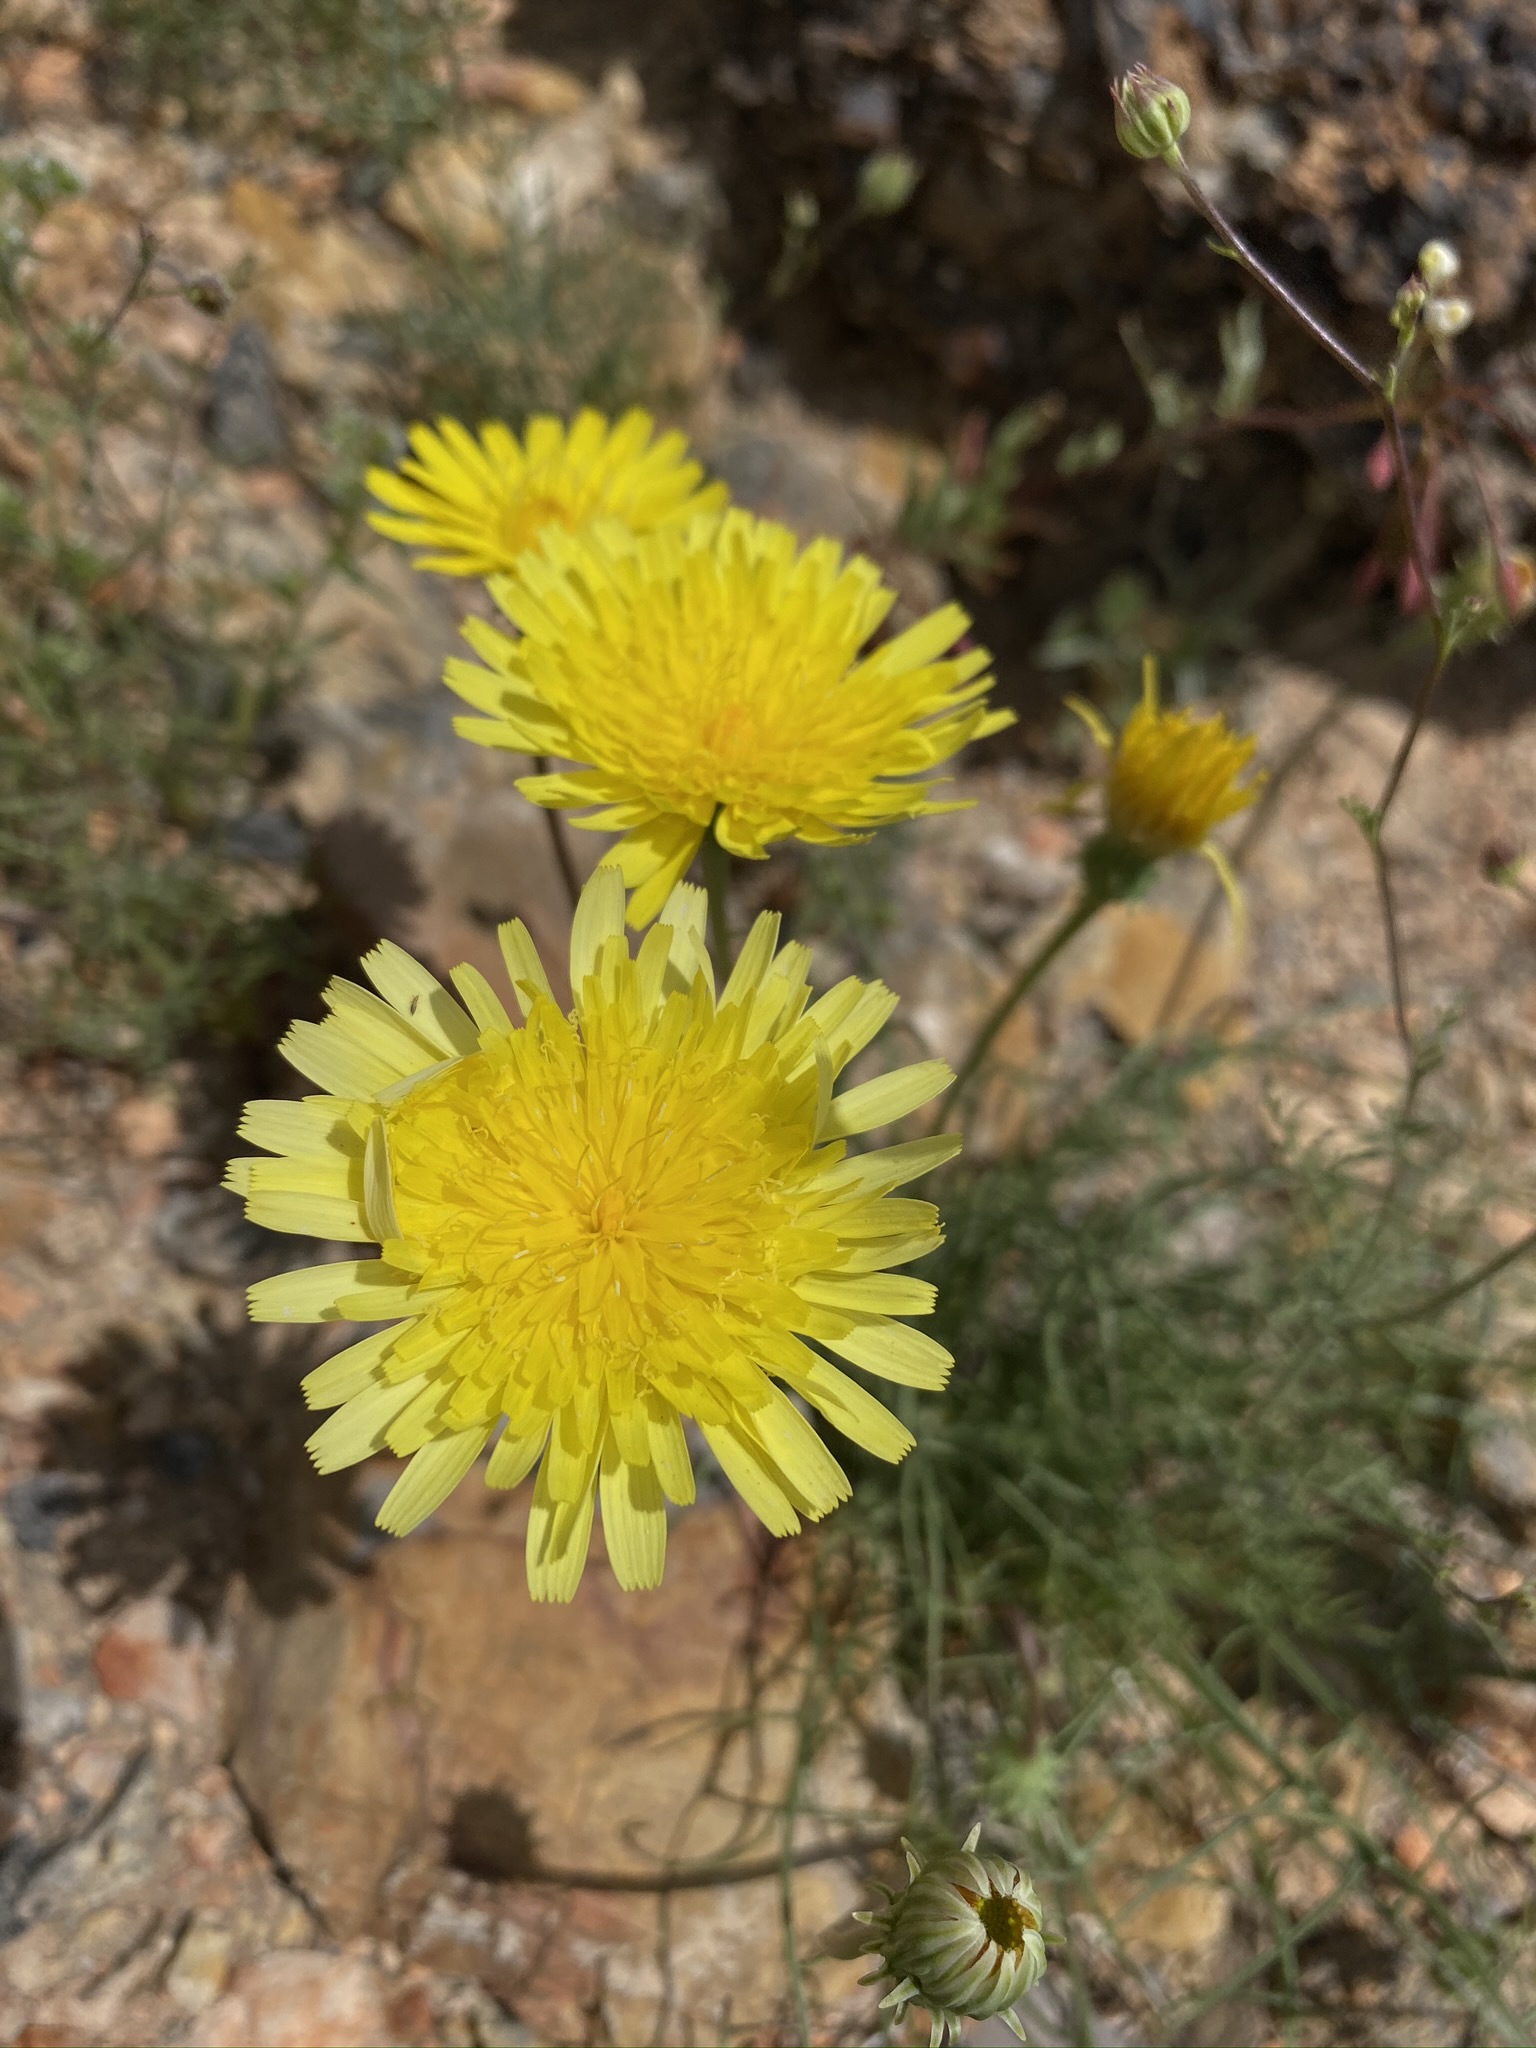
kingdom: Plantae
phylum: Tracheophyta
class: Magnoliopsida
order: Asterales
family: Asteraceae
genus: Malacothrix
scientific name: Malacothrix glabrata
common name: Smooth desert-dandelion
